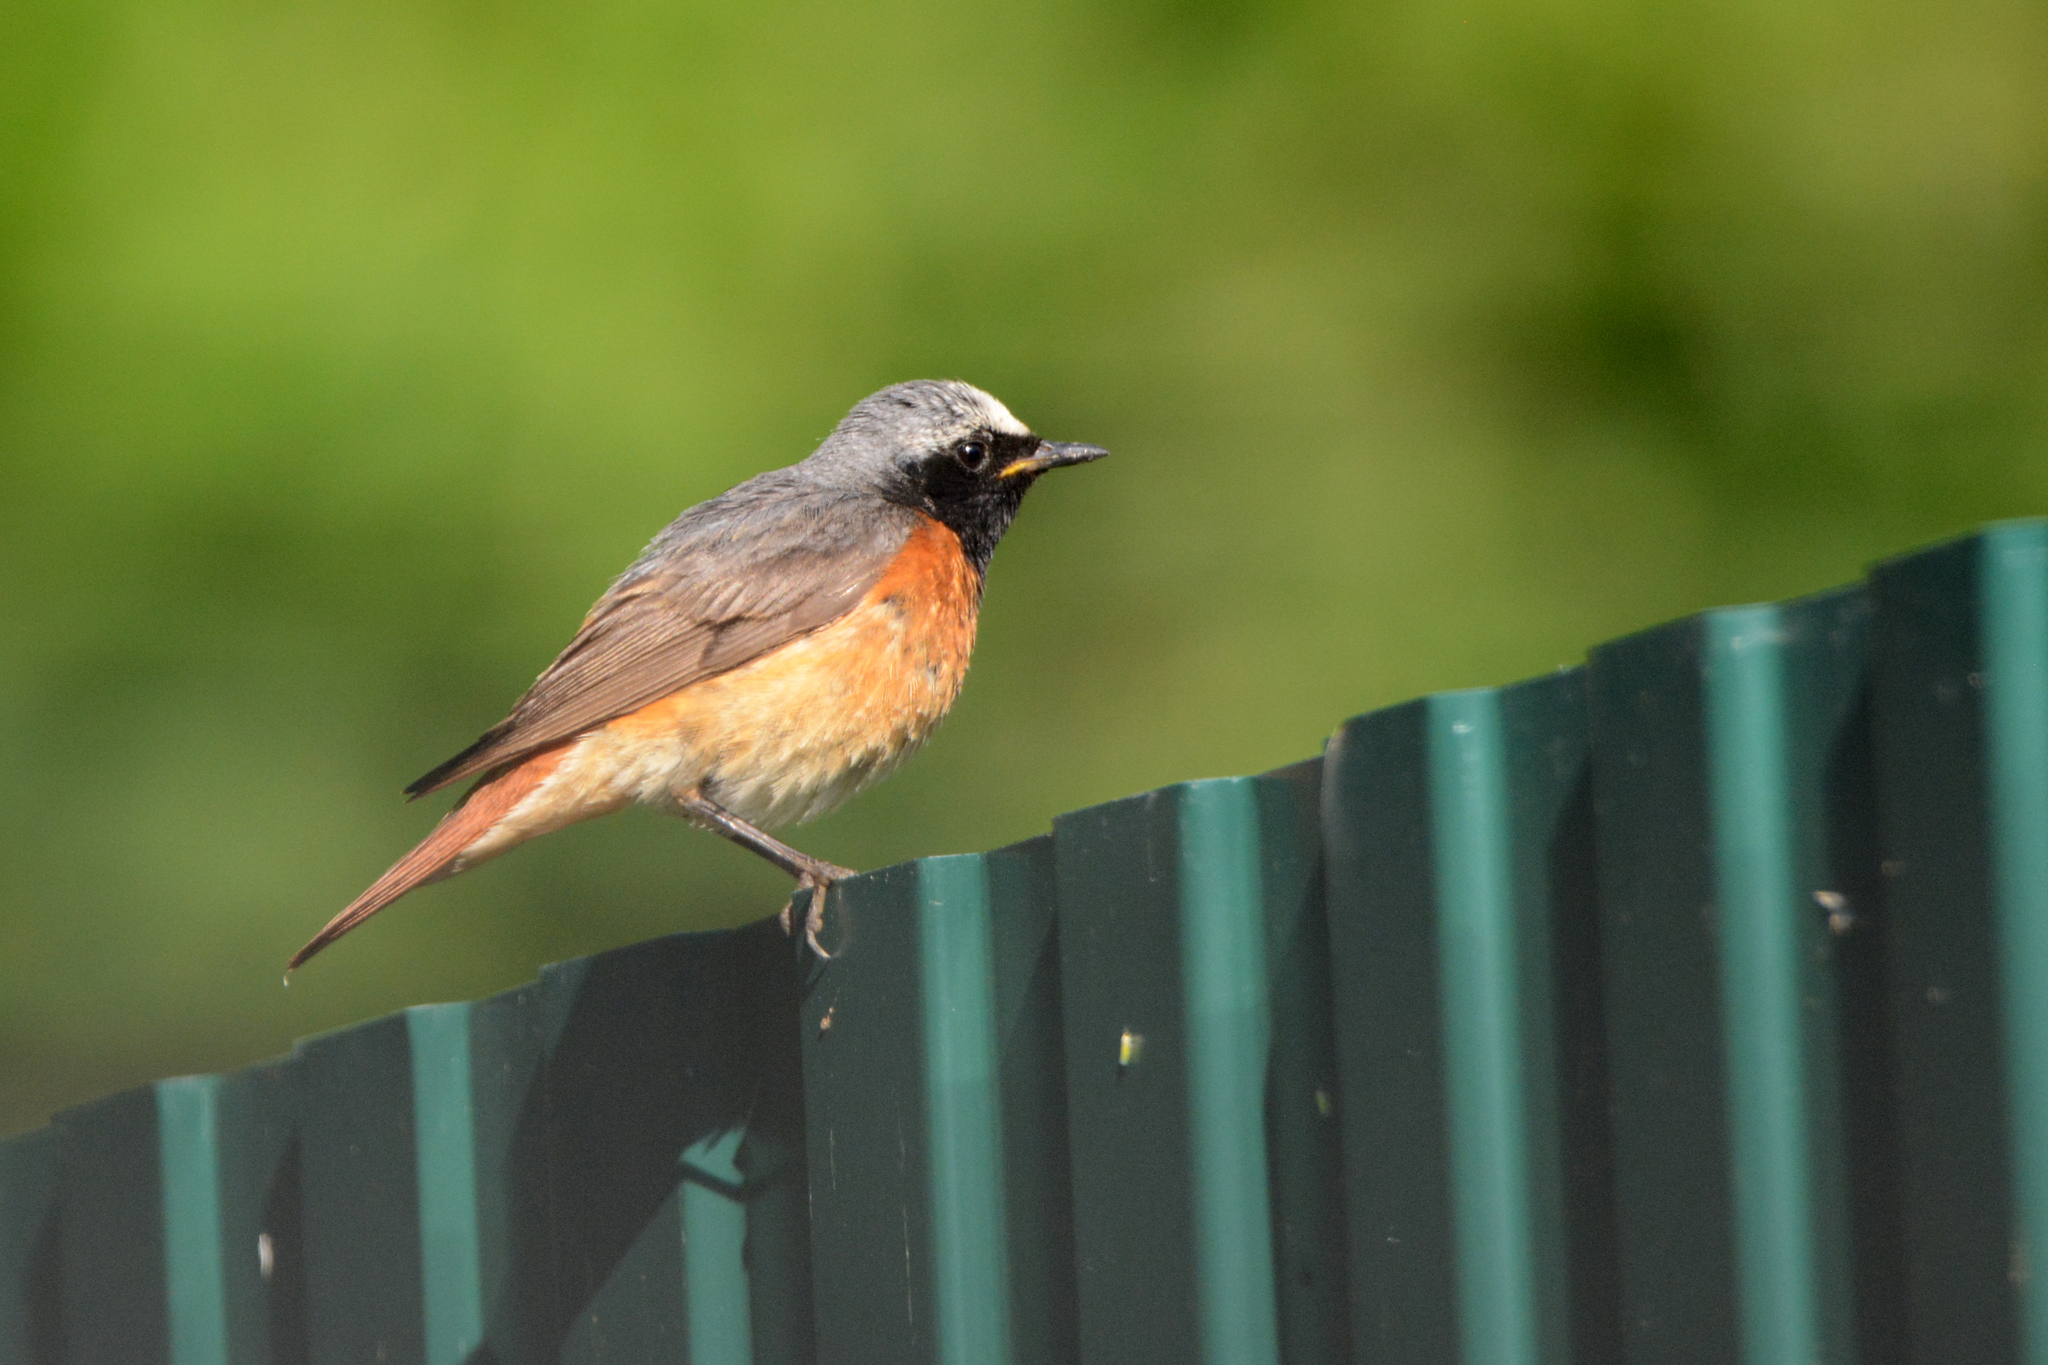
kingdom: Animalia
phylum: Chordata
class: Aves
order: Passeriformes
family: Muscicapidae
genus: Phoenicurus
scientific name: Phoenicurus phoenicurus
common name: Common redstart
